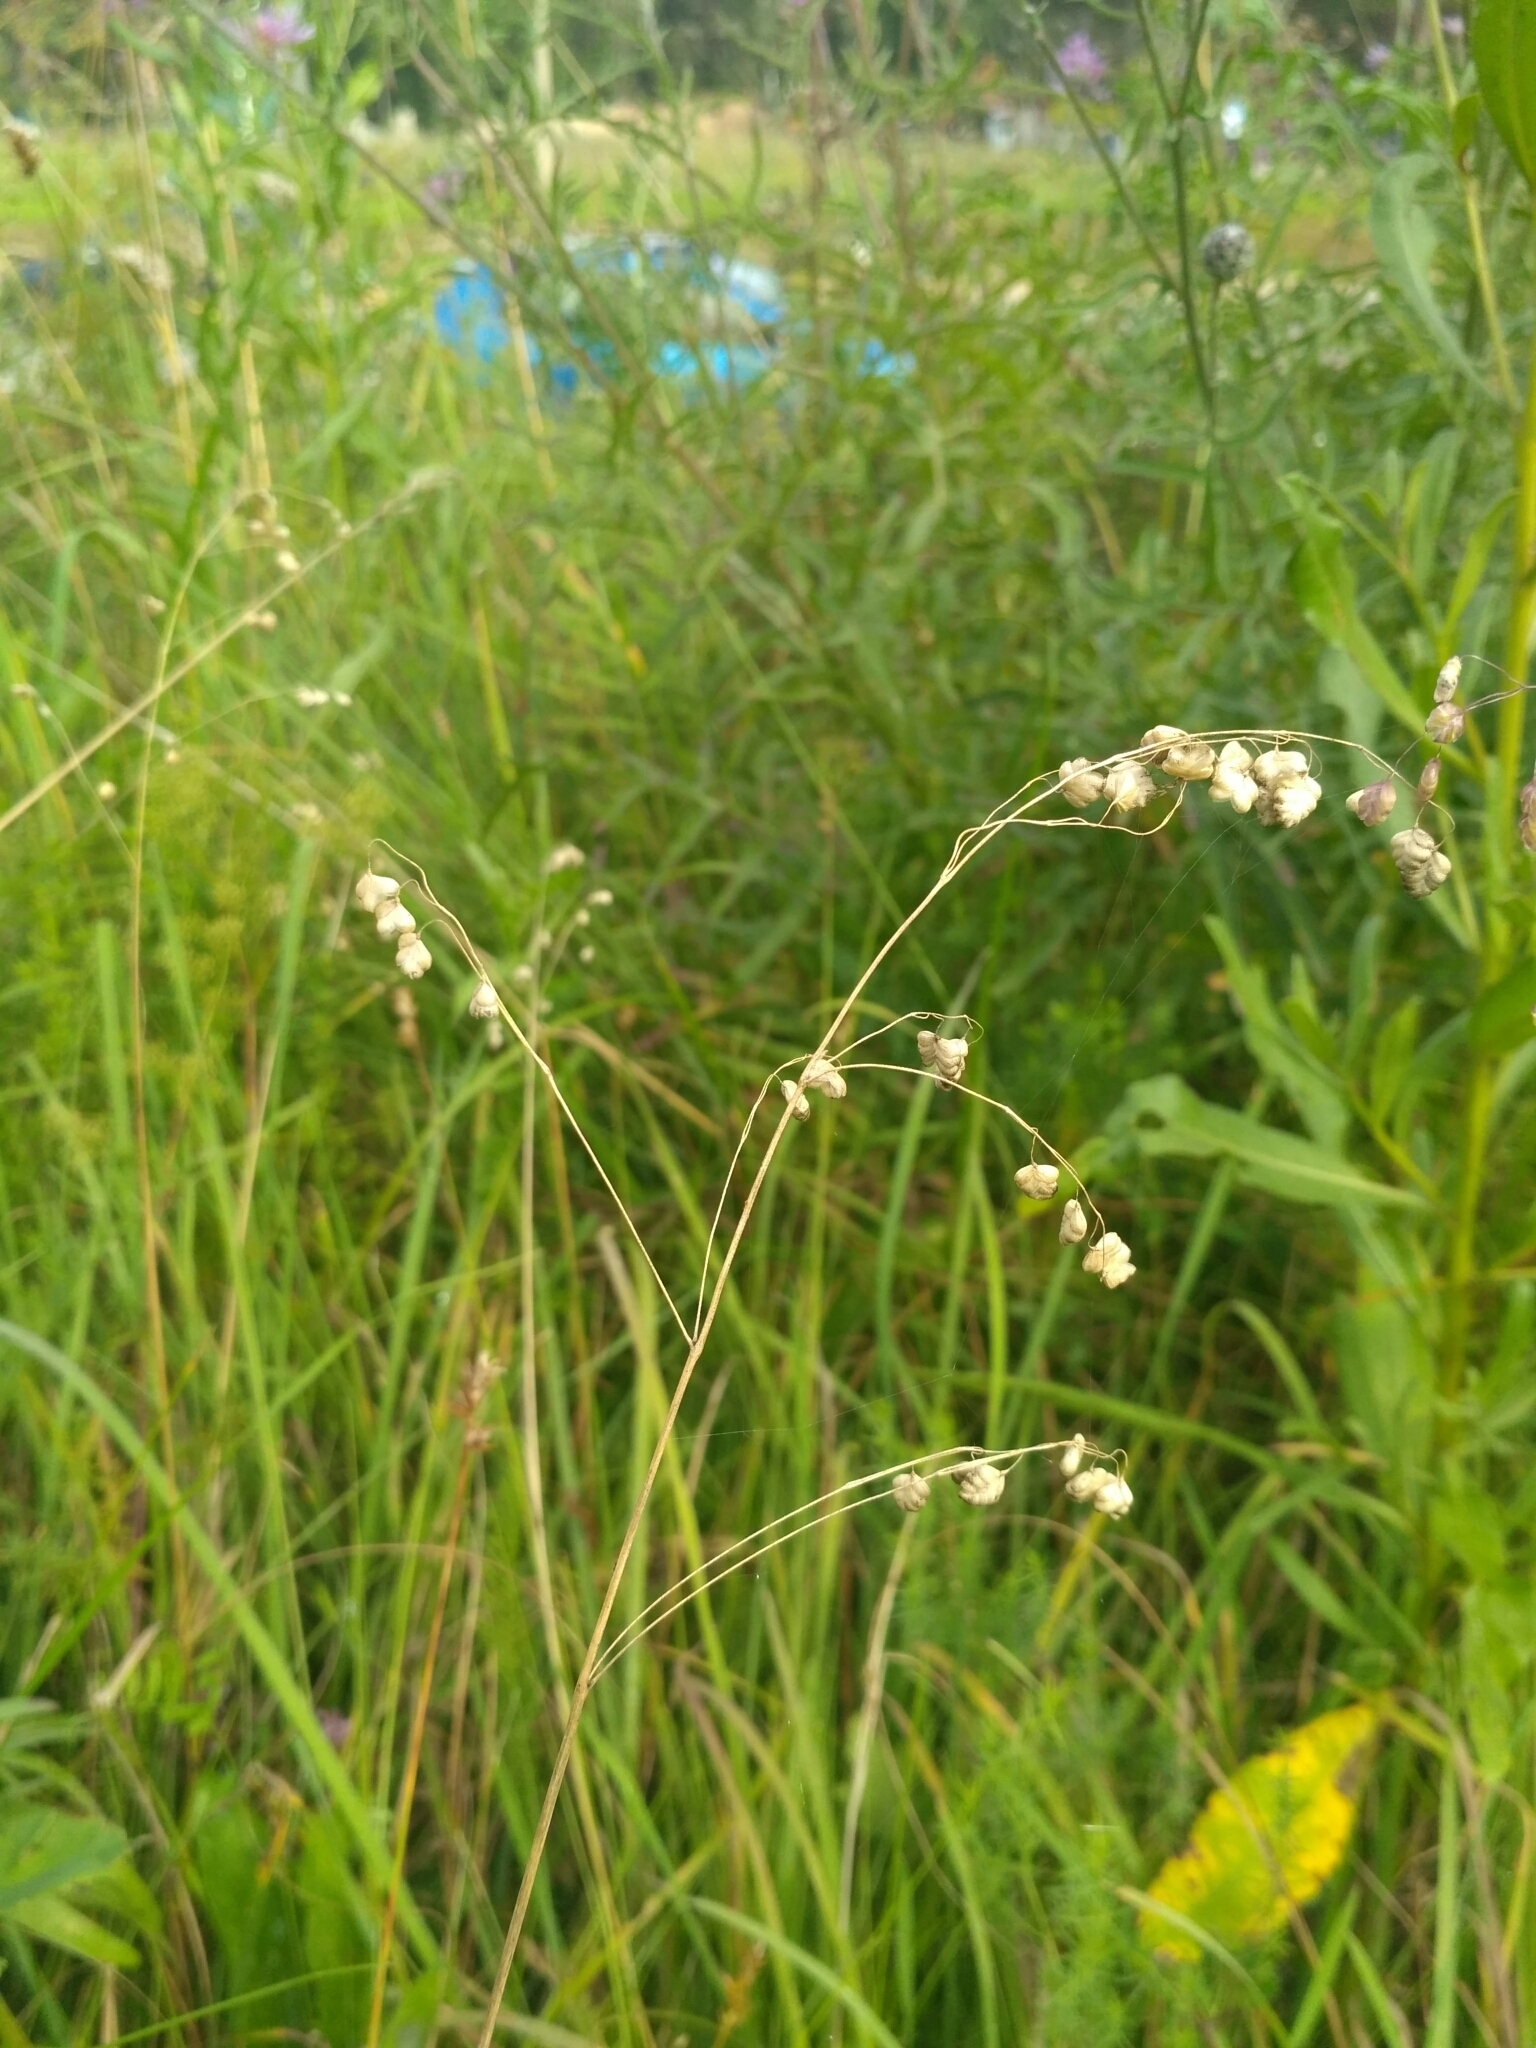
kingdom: Plantae
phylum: Tracheophyta
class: Liliopsida
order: Poales
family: Poaceae
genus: Briza
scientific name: Briza media
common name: Quaking grass
